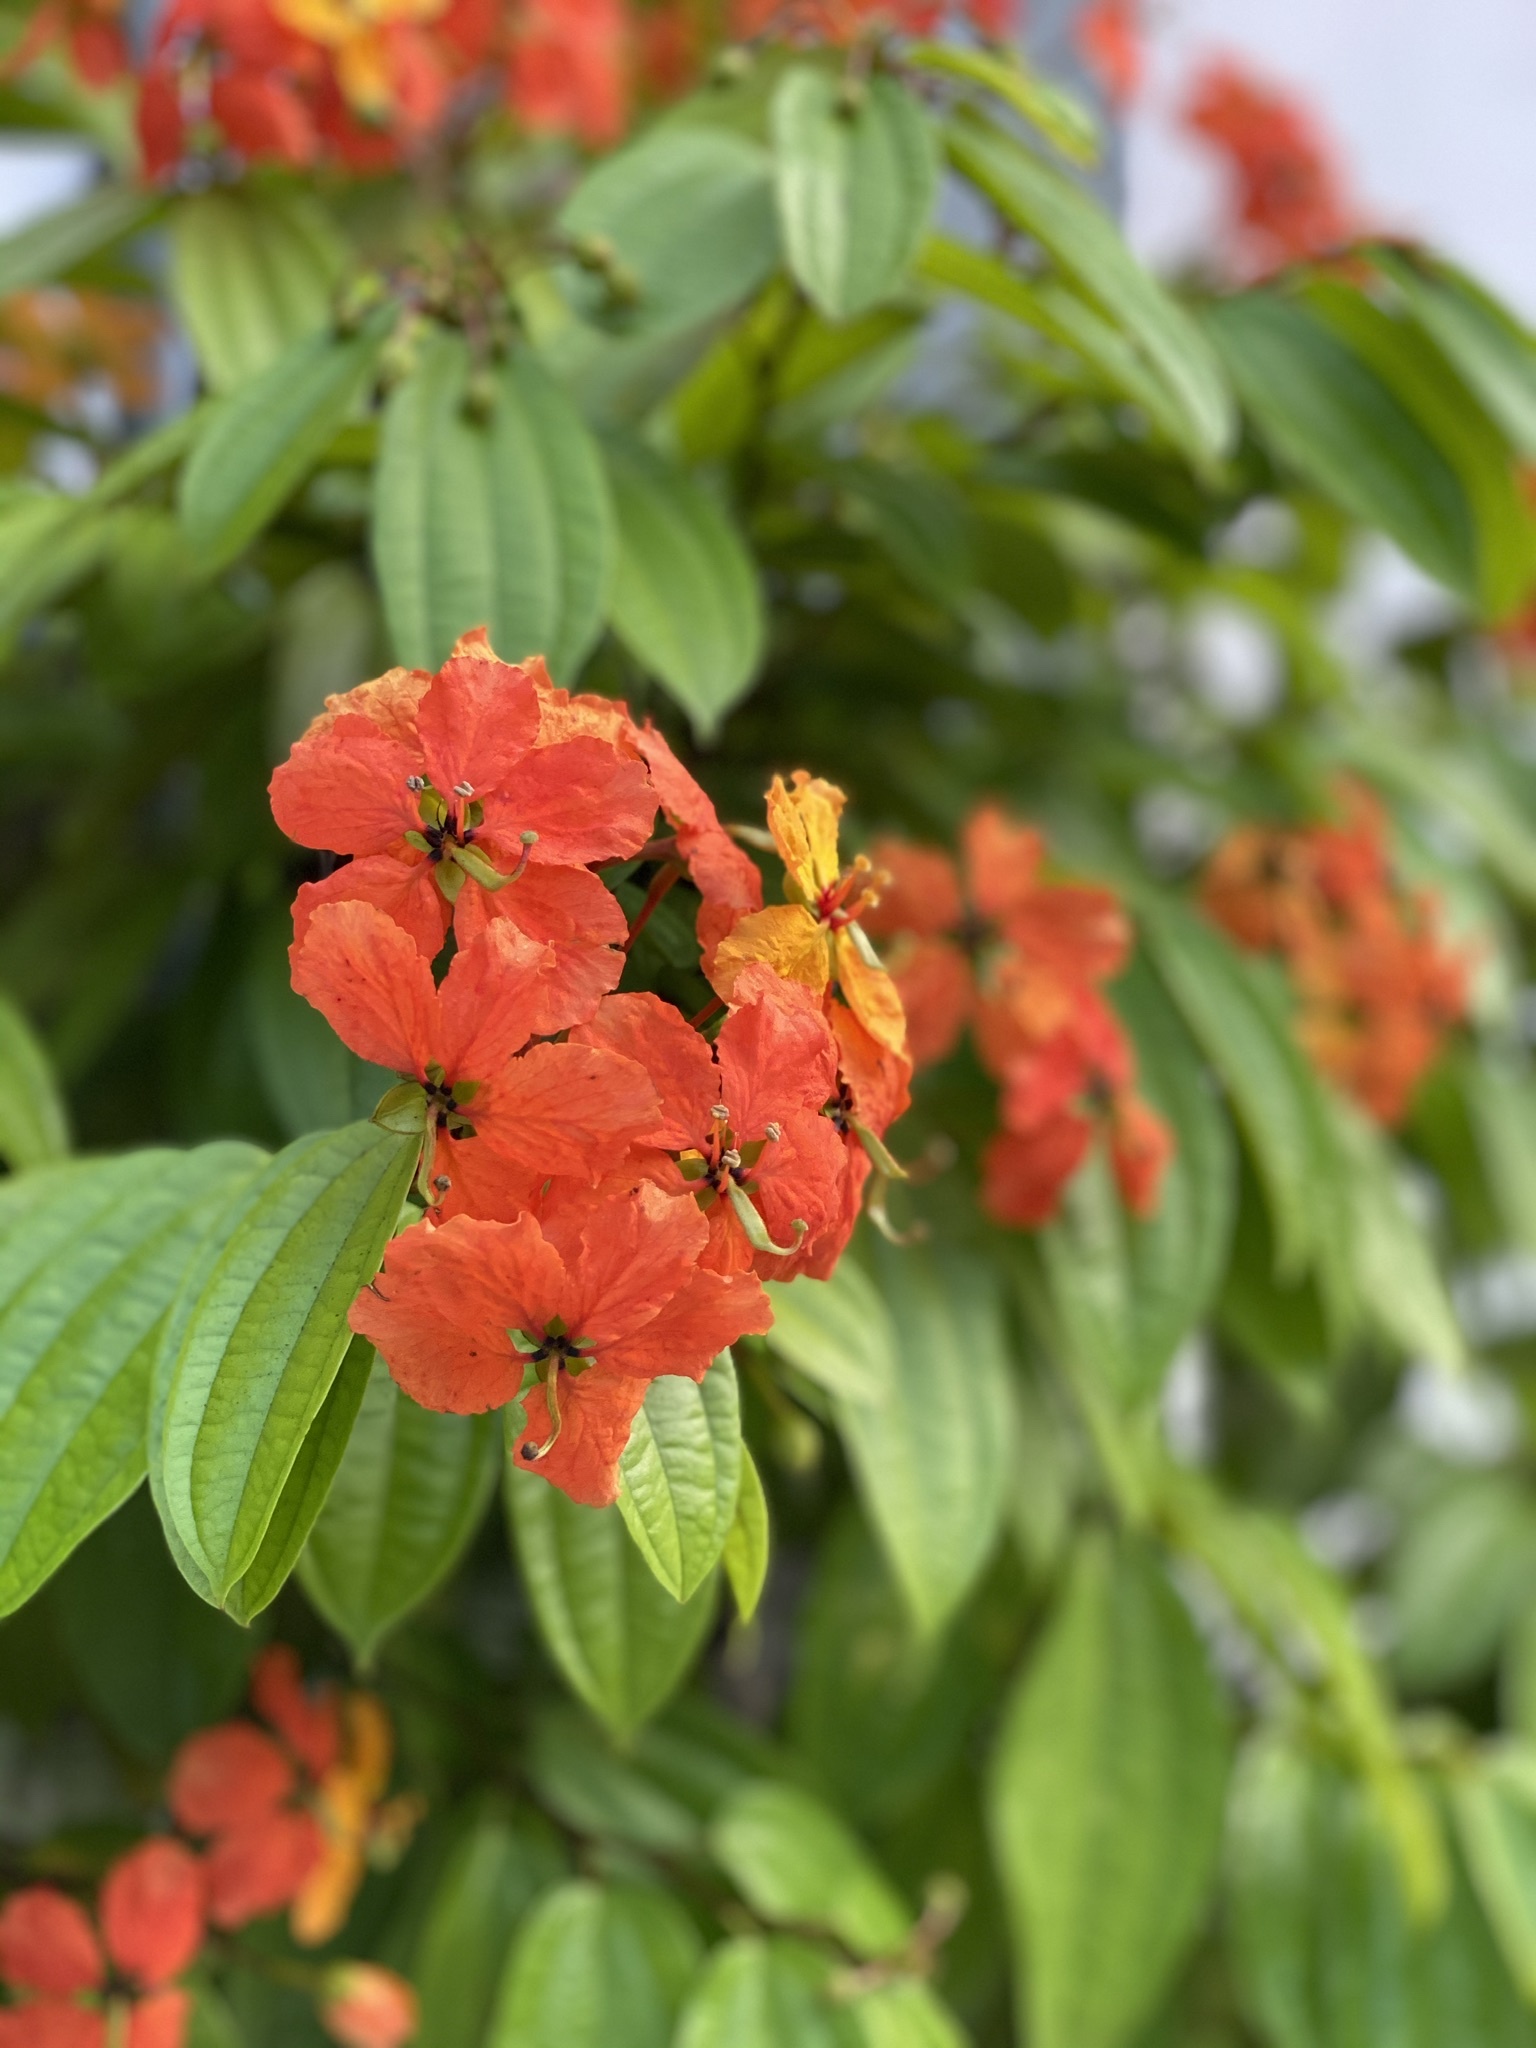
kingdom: Plantae
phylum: Tracheophyta
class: Magnoliopsida
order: Fabales
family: Fabaceae
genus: Phanera
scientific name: Phanera kockiana
